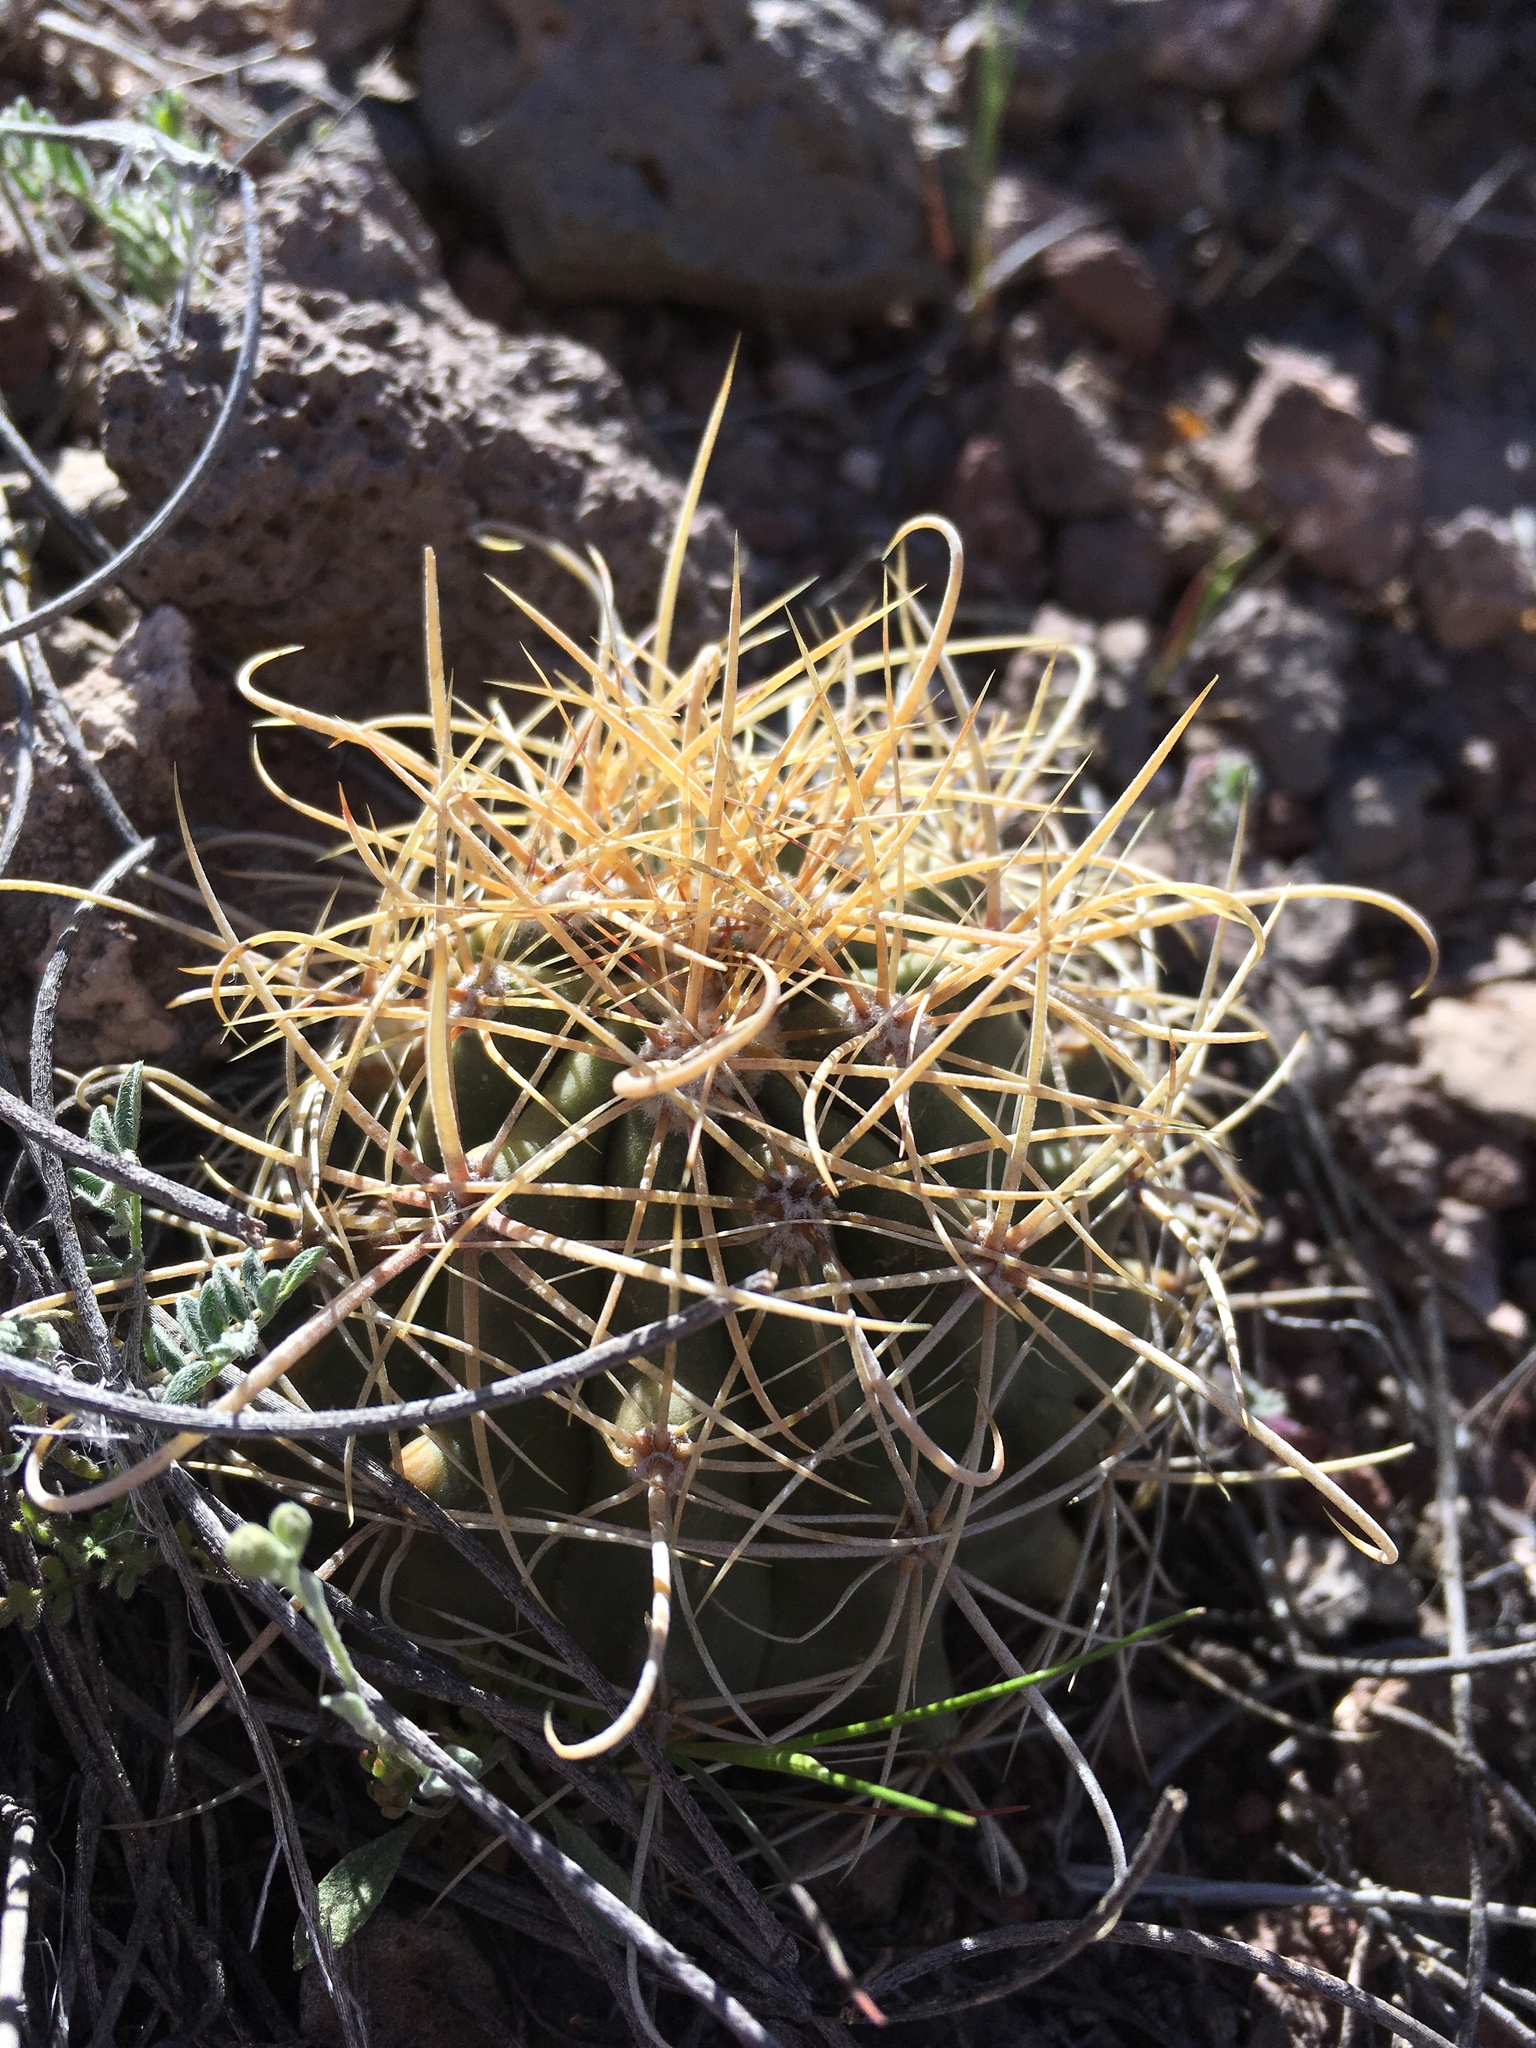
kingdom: Plantae
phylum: Tracheophyta
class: Magnoliopsida
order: Caryophyllales
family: Cactaceae
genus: Ferocactus
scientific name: Ferocactus uncinatus
